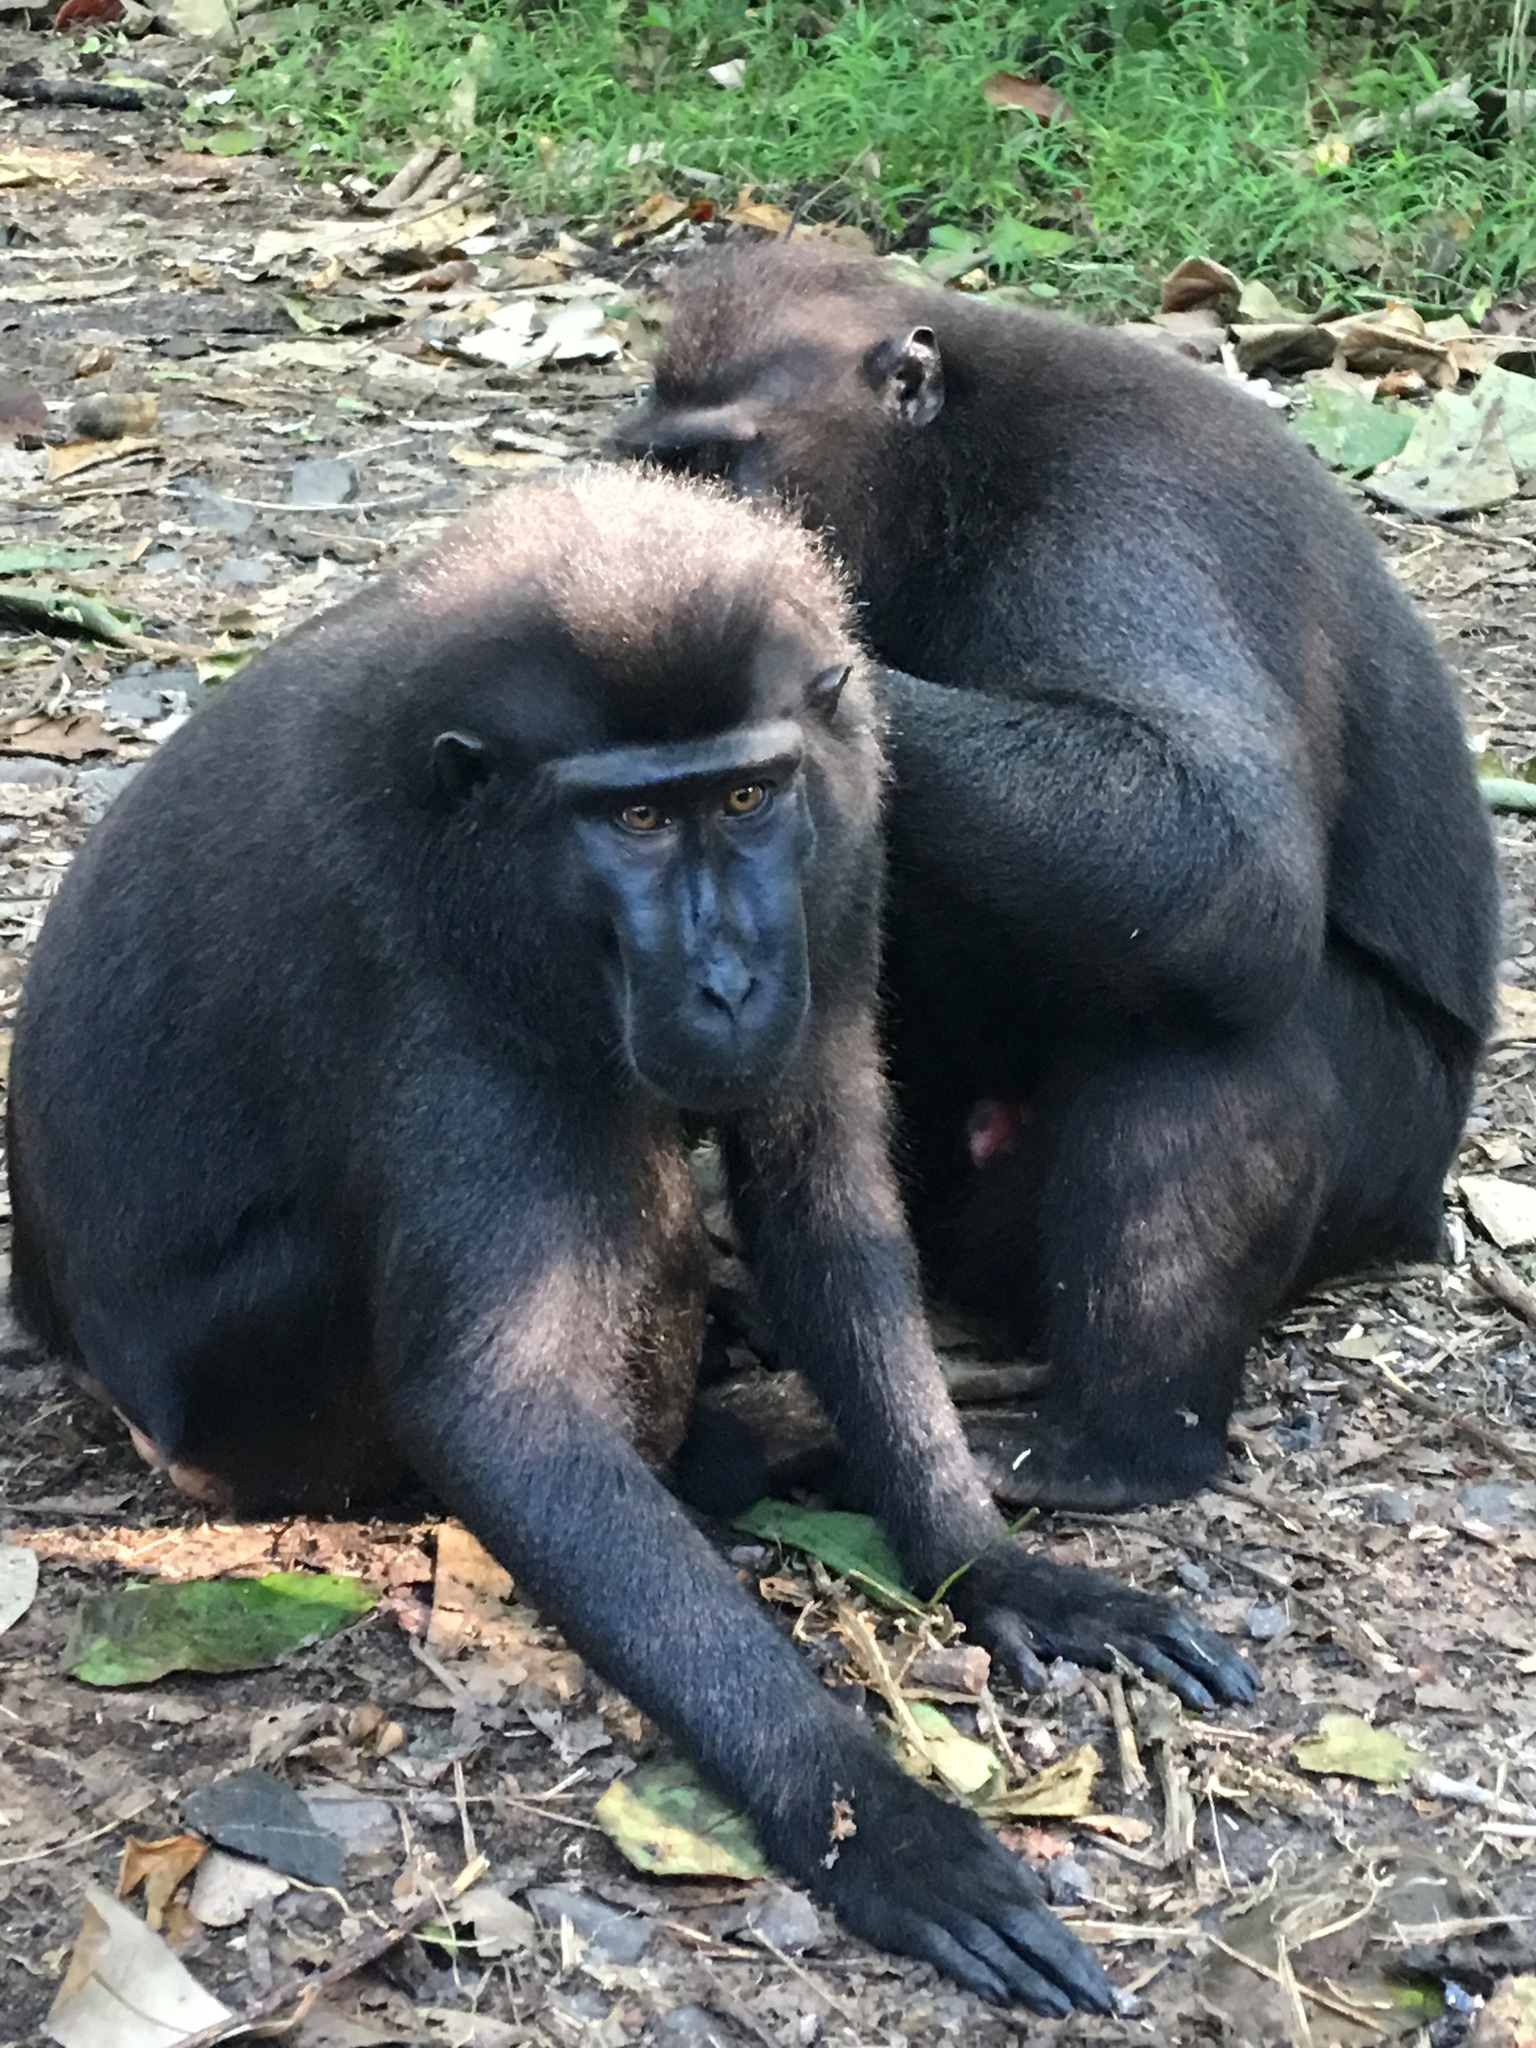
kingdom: Animalia
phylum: Chordata
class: Mammalia
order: Primates
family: Cercopithecidae
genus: Macaca
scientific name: Macaca nigra
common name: Celebes crested macaque
